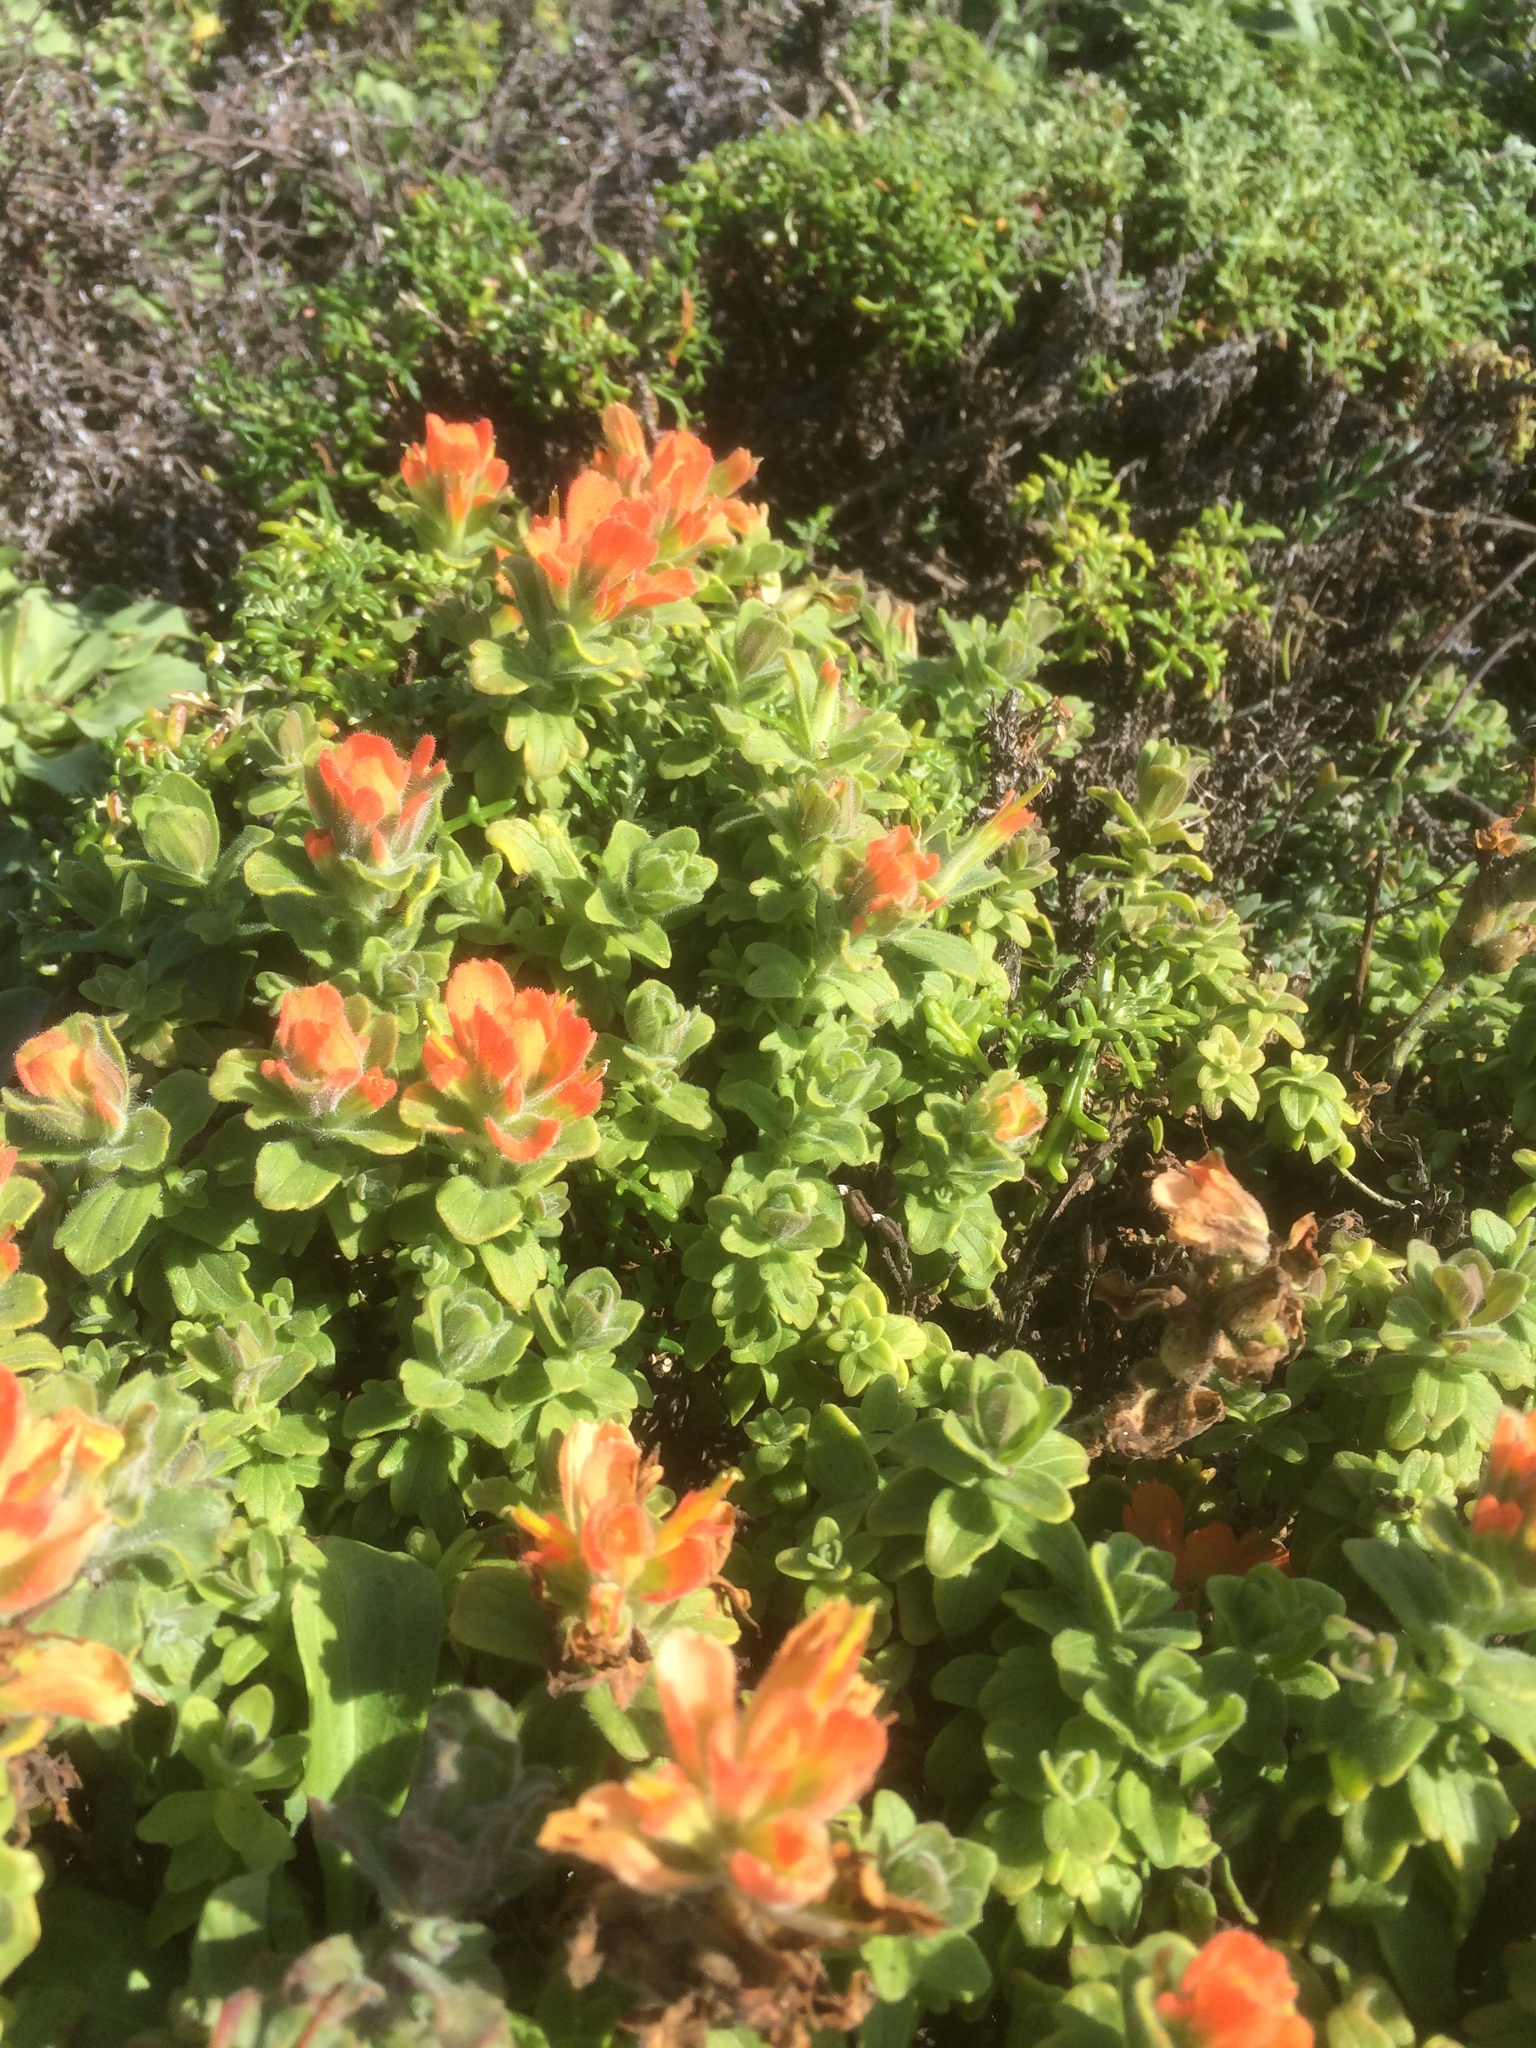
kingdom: Plantae
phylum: Tracheophyta
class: Magnoliopsida
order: Lamiales
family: Orobanchaceae
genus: Castilleja
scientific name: Castilleja latifolia
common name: Monterey indian paintbrush
